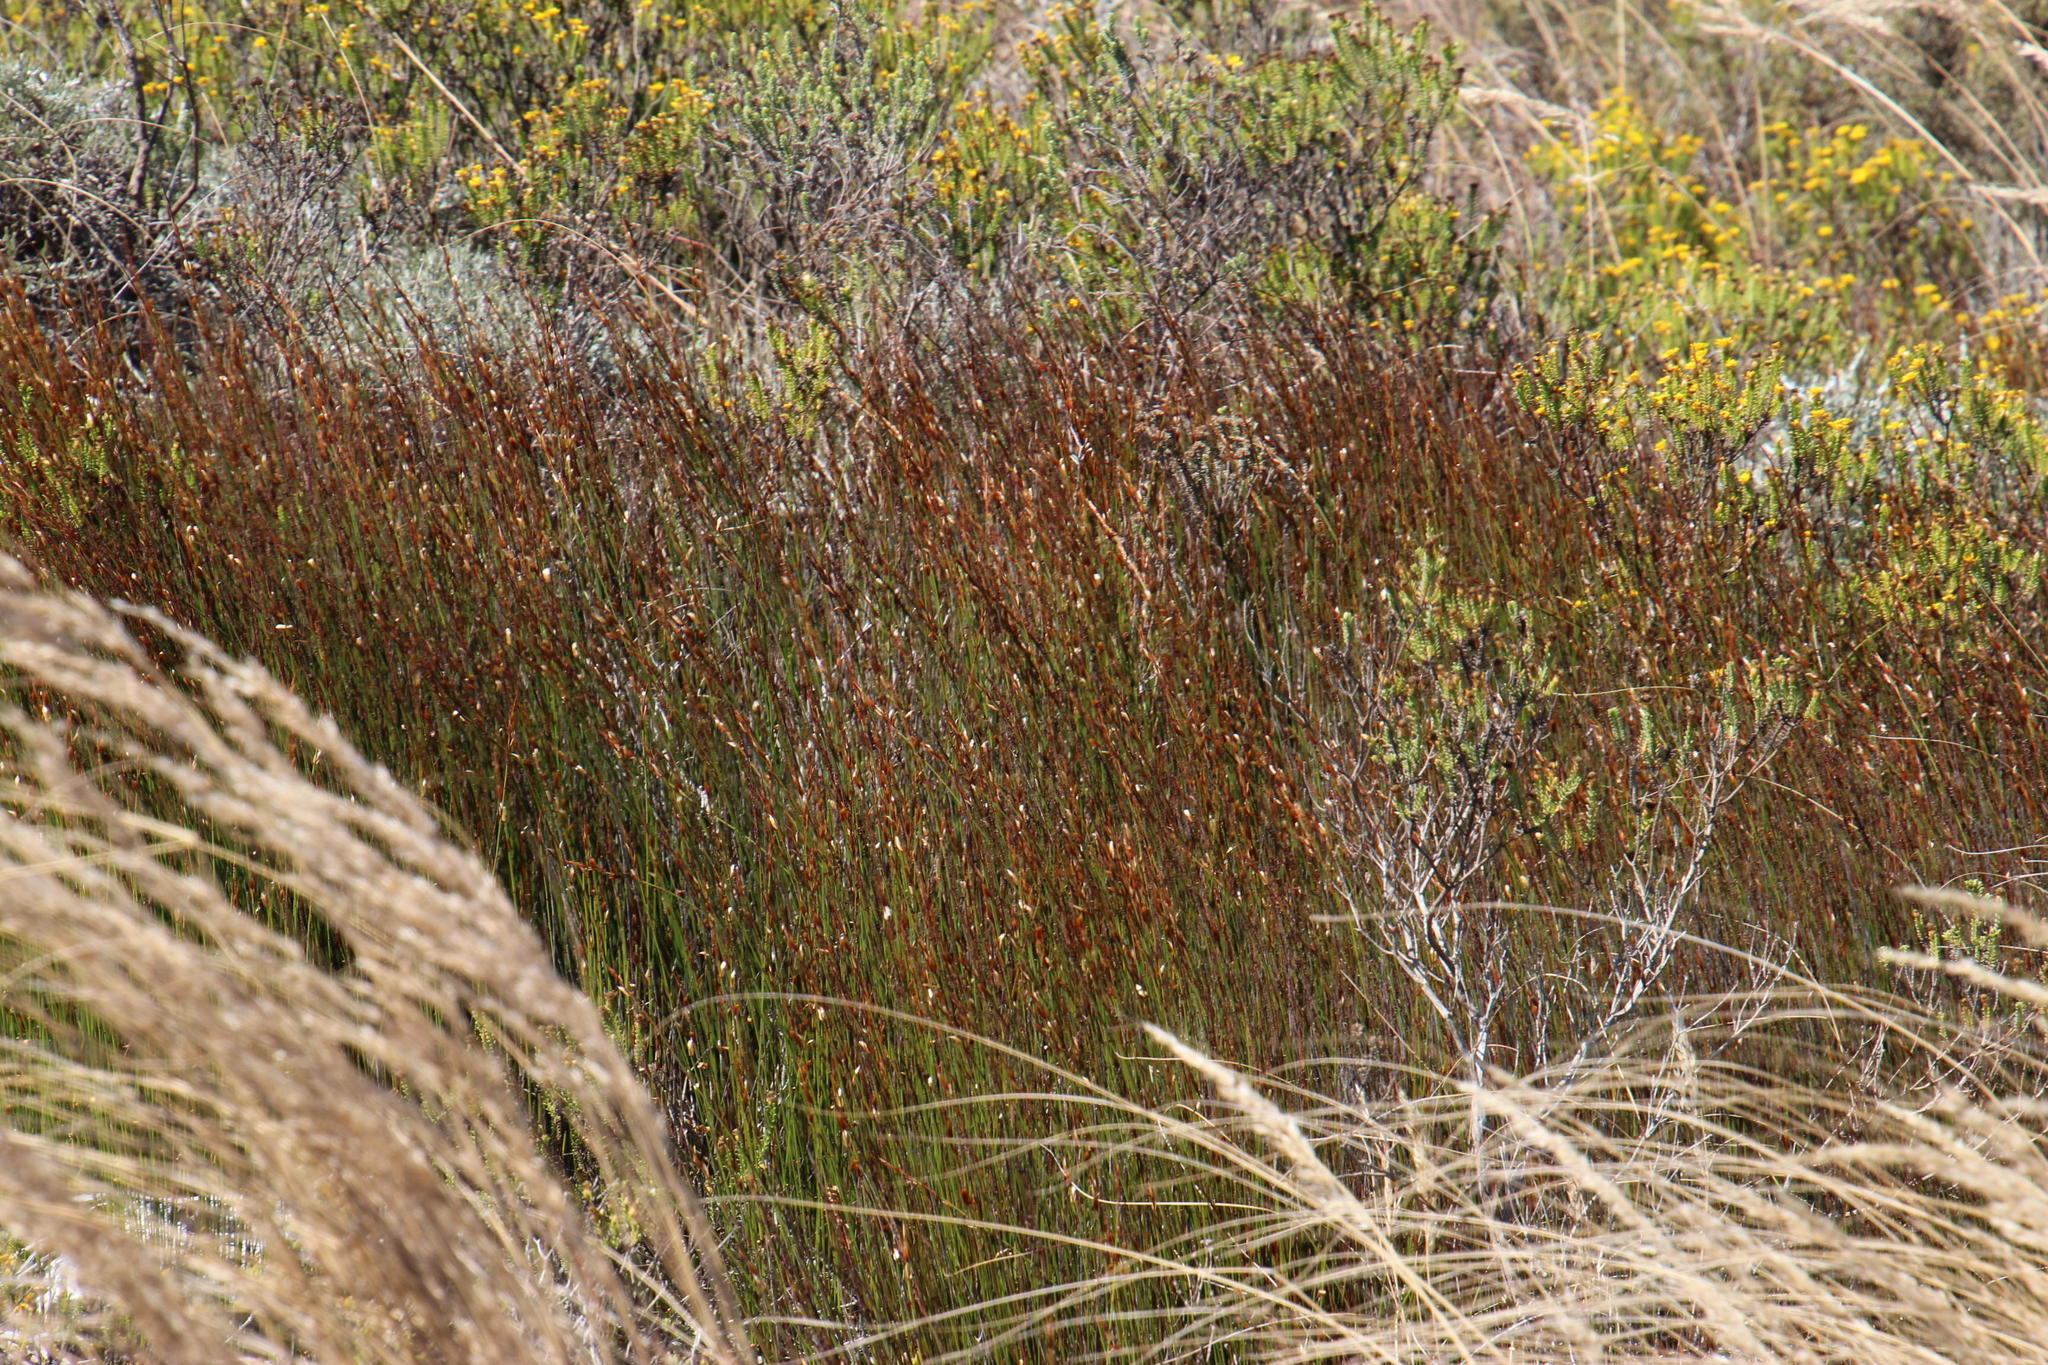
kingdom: Plantae
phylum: Tracheophyta
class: Liliopsida
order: Poales
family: Restionaceae
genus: Elegia
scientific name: Elegia recta
